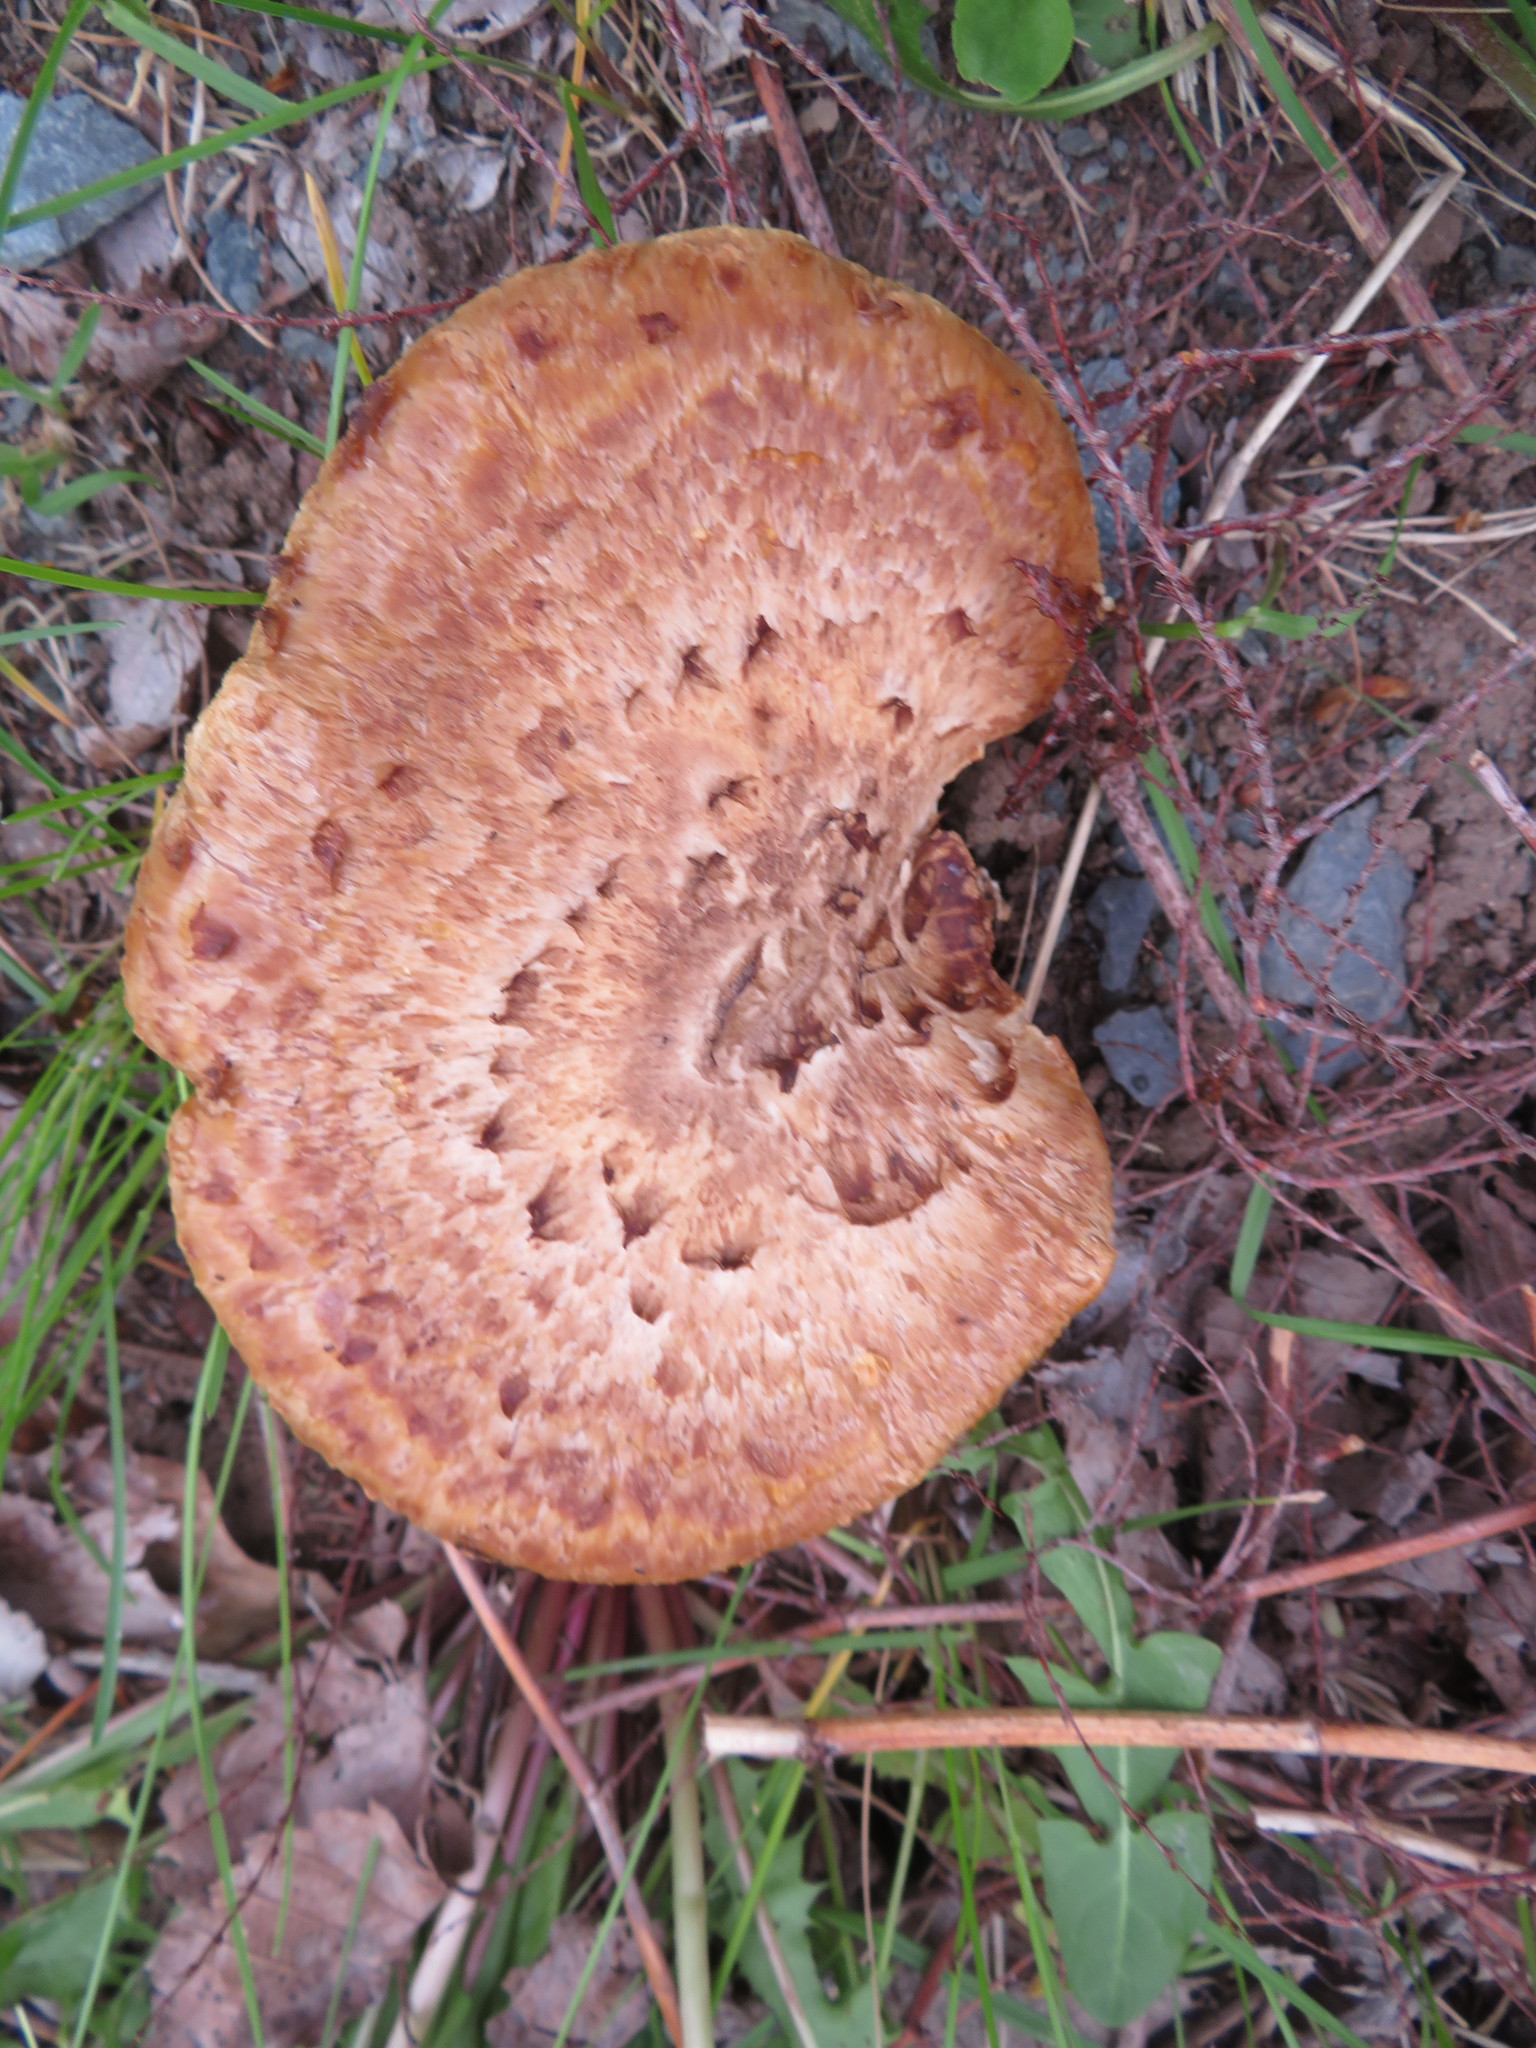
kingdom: Fungi
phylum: Basidiomycota
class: Agaricomycetes
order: Polyporales
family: Polyporaceae
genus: Cerioporus
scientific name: Cerioporus squamosus
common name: Dryad's saddle
